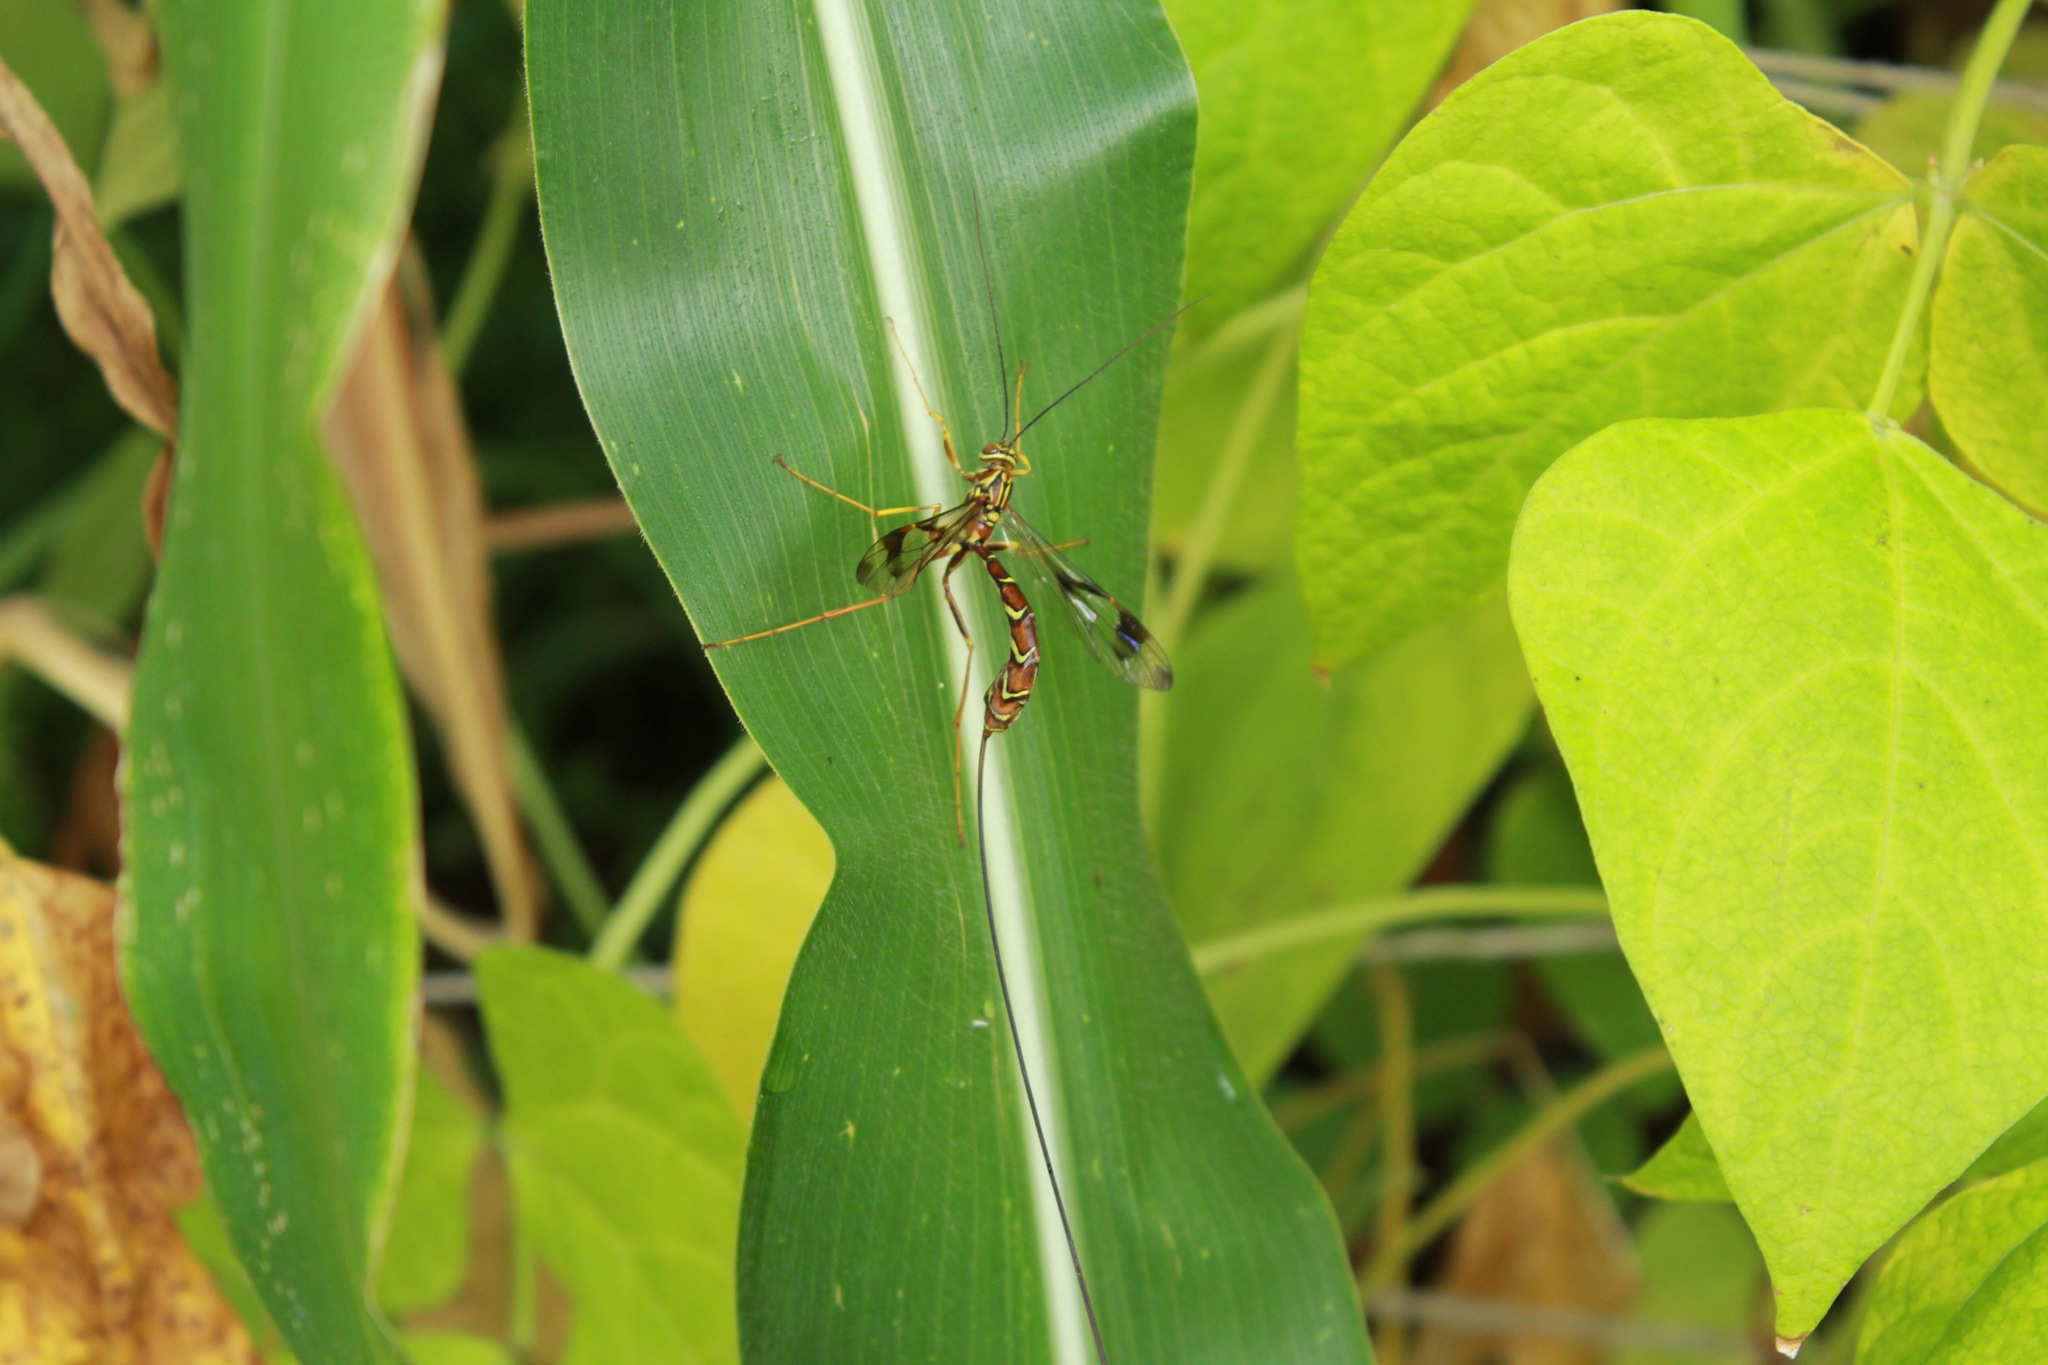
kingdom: Animalia
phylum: Arthropoda
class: Insecta
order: Hymenoptera
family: Ichneumonidae
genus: Megarhyssa
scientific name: Megarhyssa macrura
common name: Long-tailed giant ichneumonid wasp
